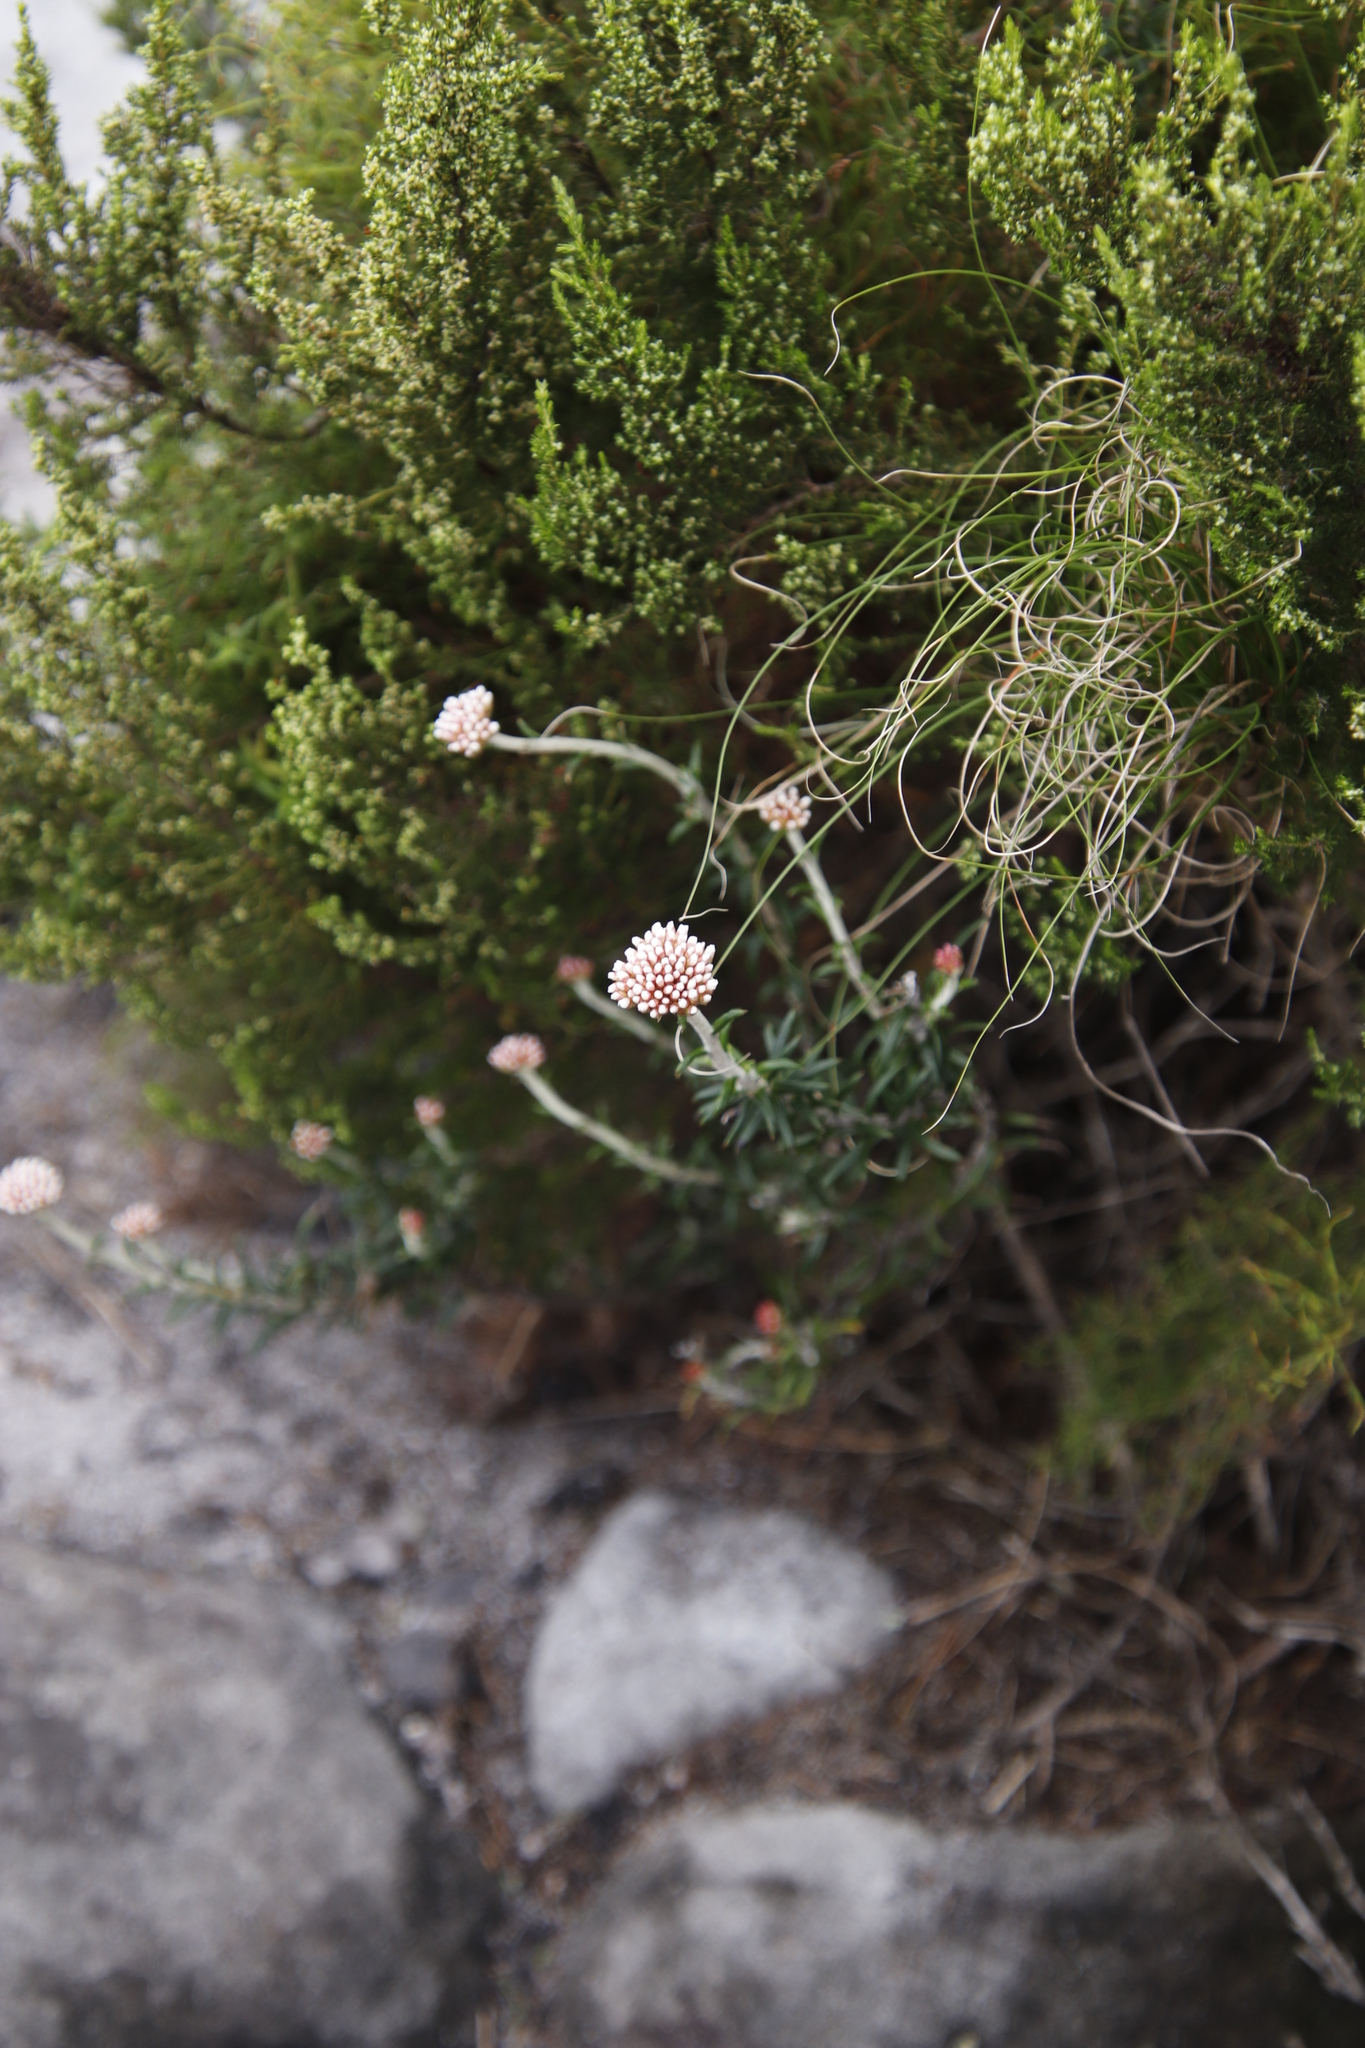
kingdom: Plantae
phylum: Tracheophyta
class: Magnoliopsida
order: Asterales
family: Asteraceae
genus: Anaxeton
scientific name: Anaxeton arborescens
